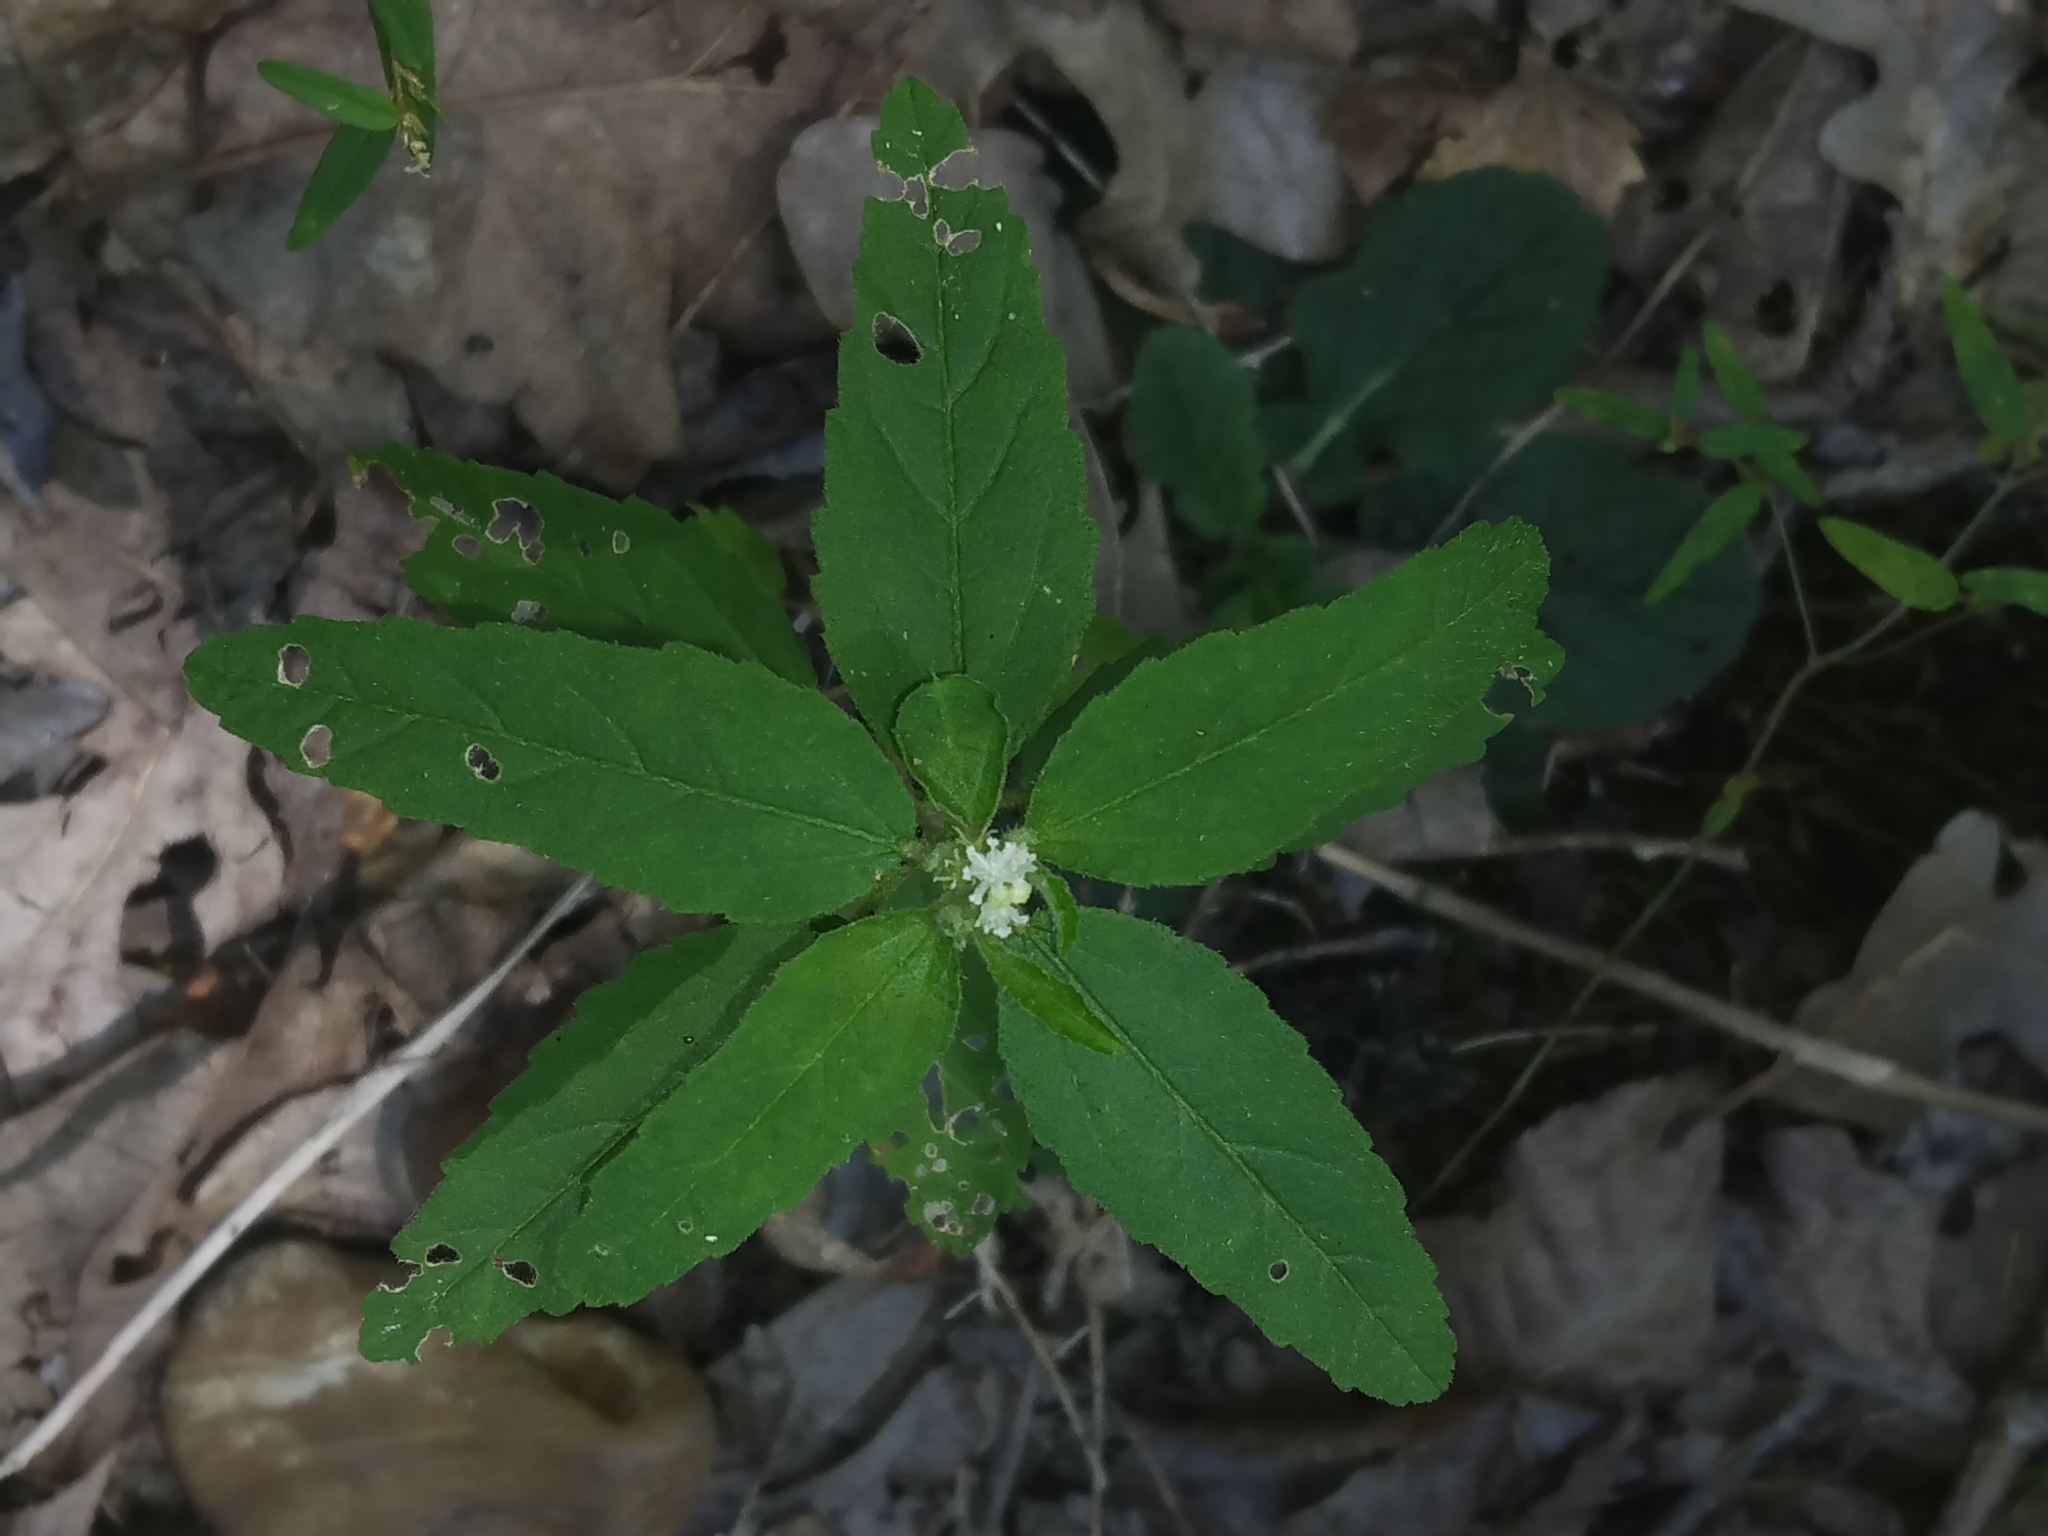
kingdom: Plantae
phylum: Tracheophyta
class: Magnoliopsida
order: Malpighiales
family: Euphorbiaceae
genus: Croton
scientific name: Croton glandulosus
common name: Tropic croton
